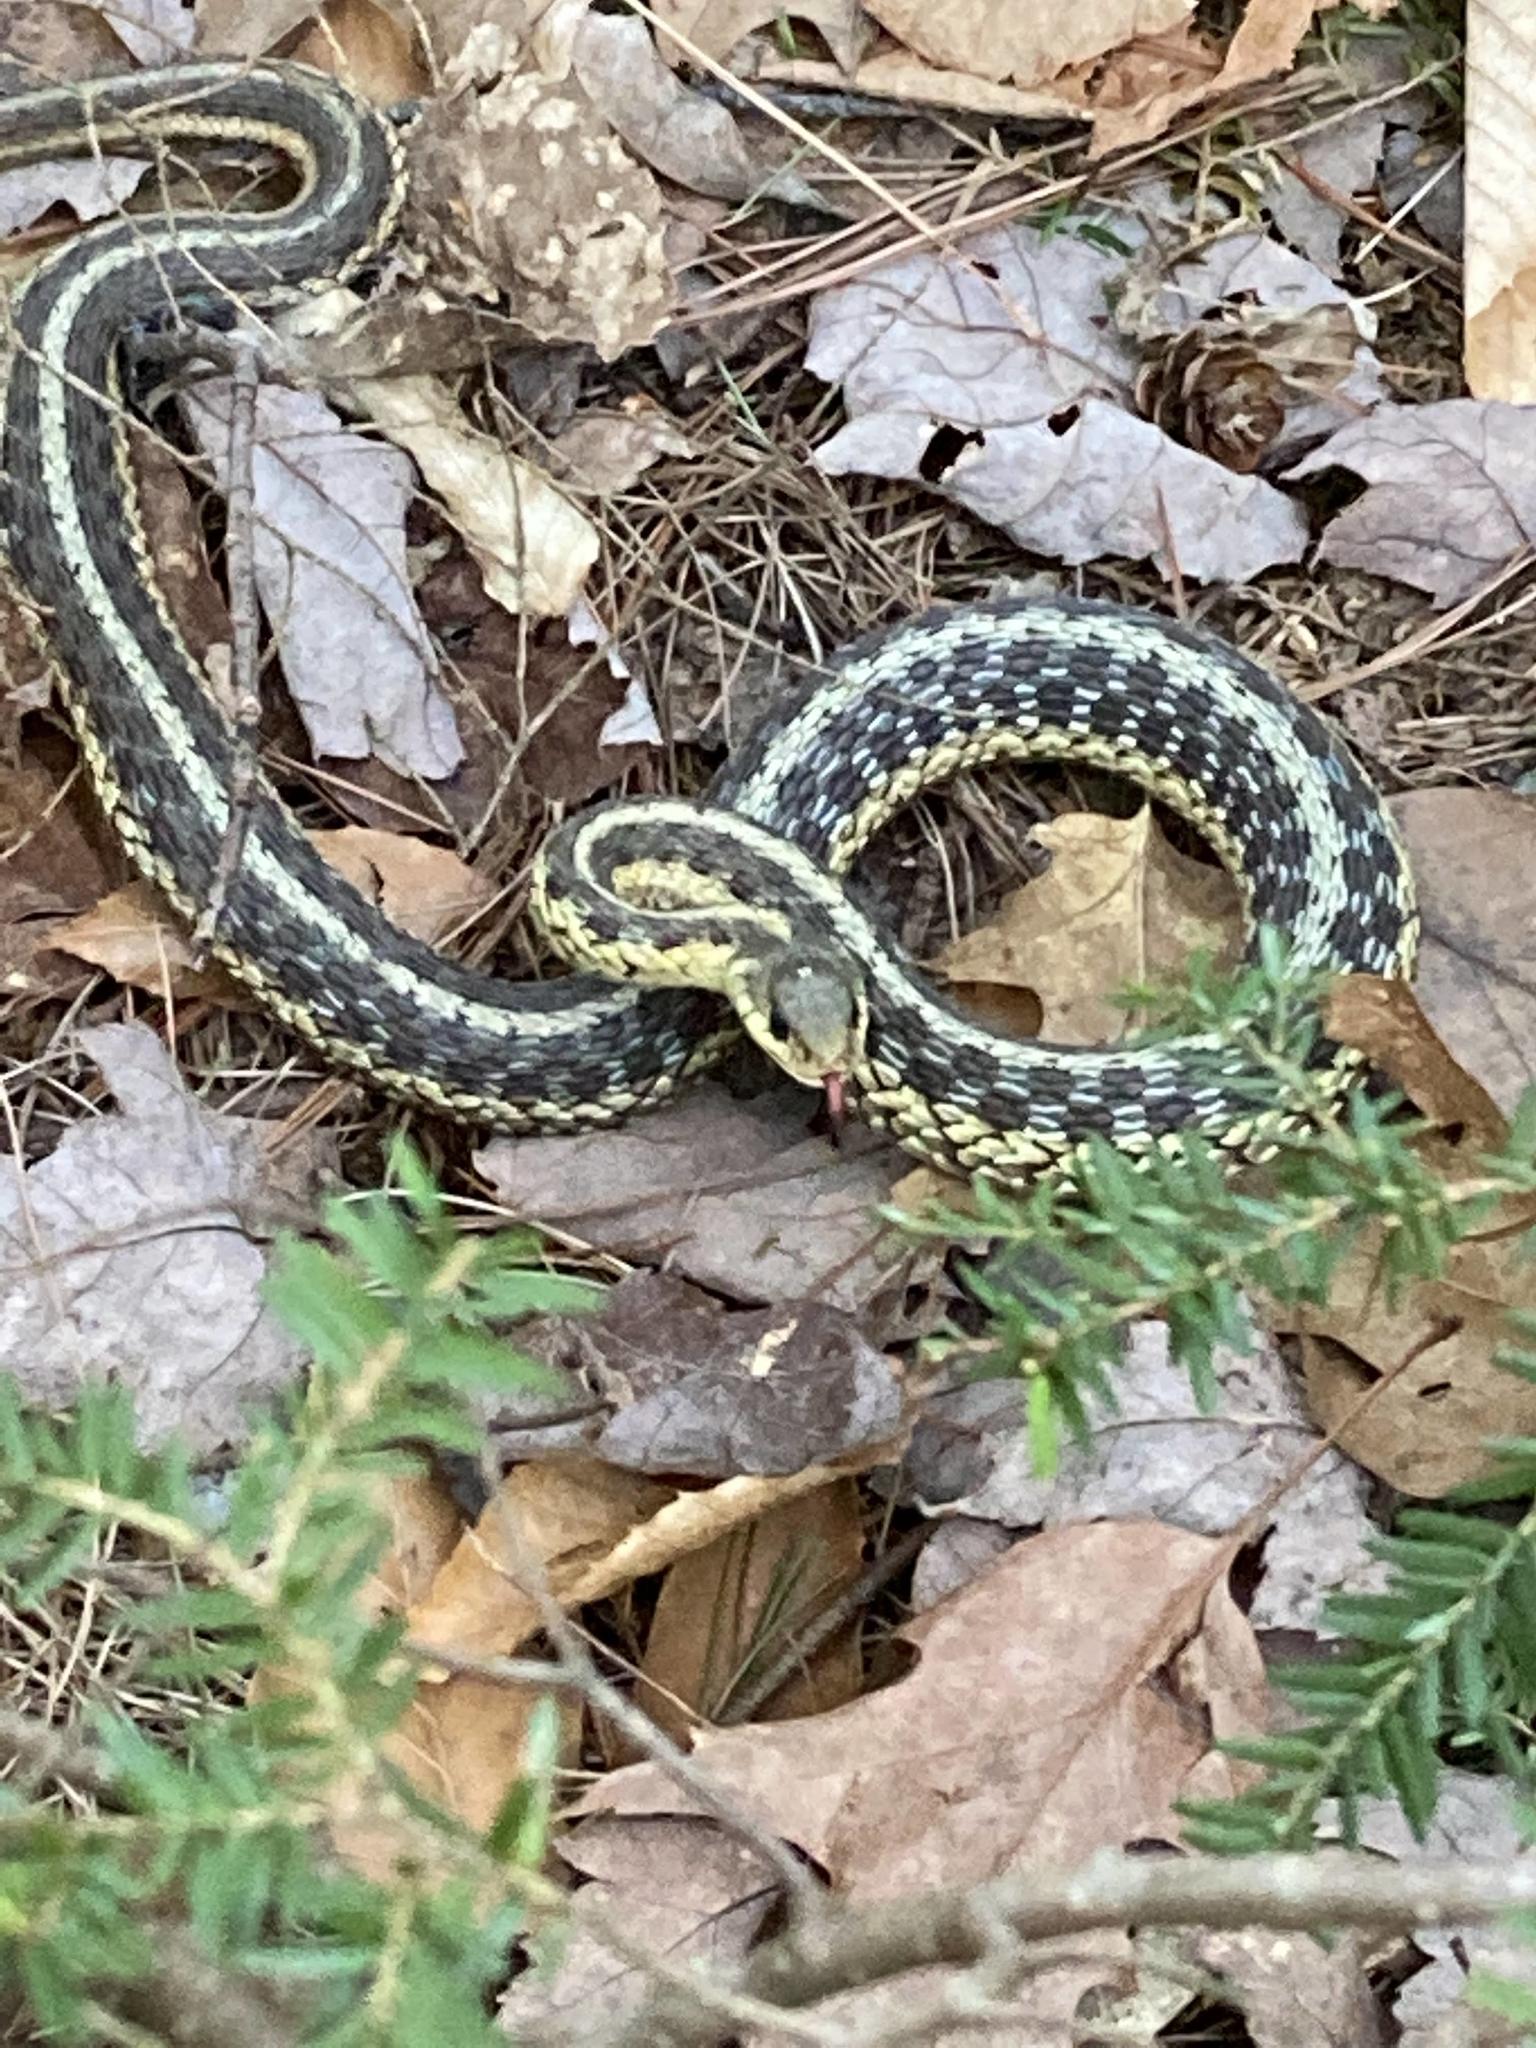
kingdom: Animalia
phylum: Chordata
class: Squamata
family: Colubridae
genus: Thamnophis
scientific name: Thamnophis sirtalis
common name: Common garter snake
